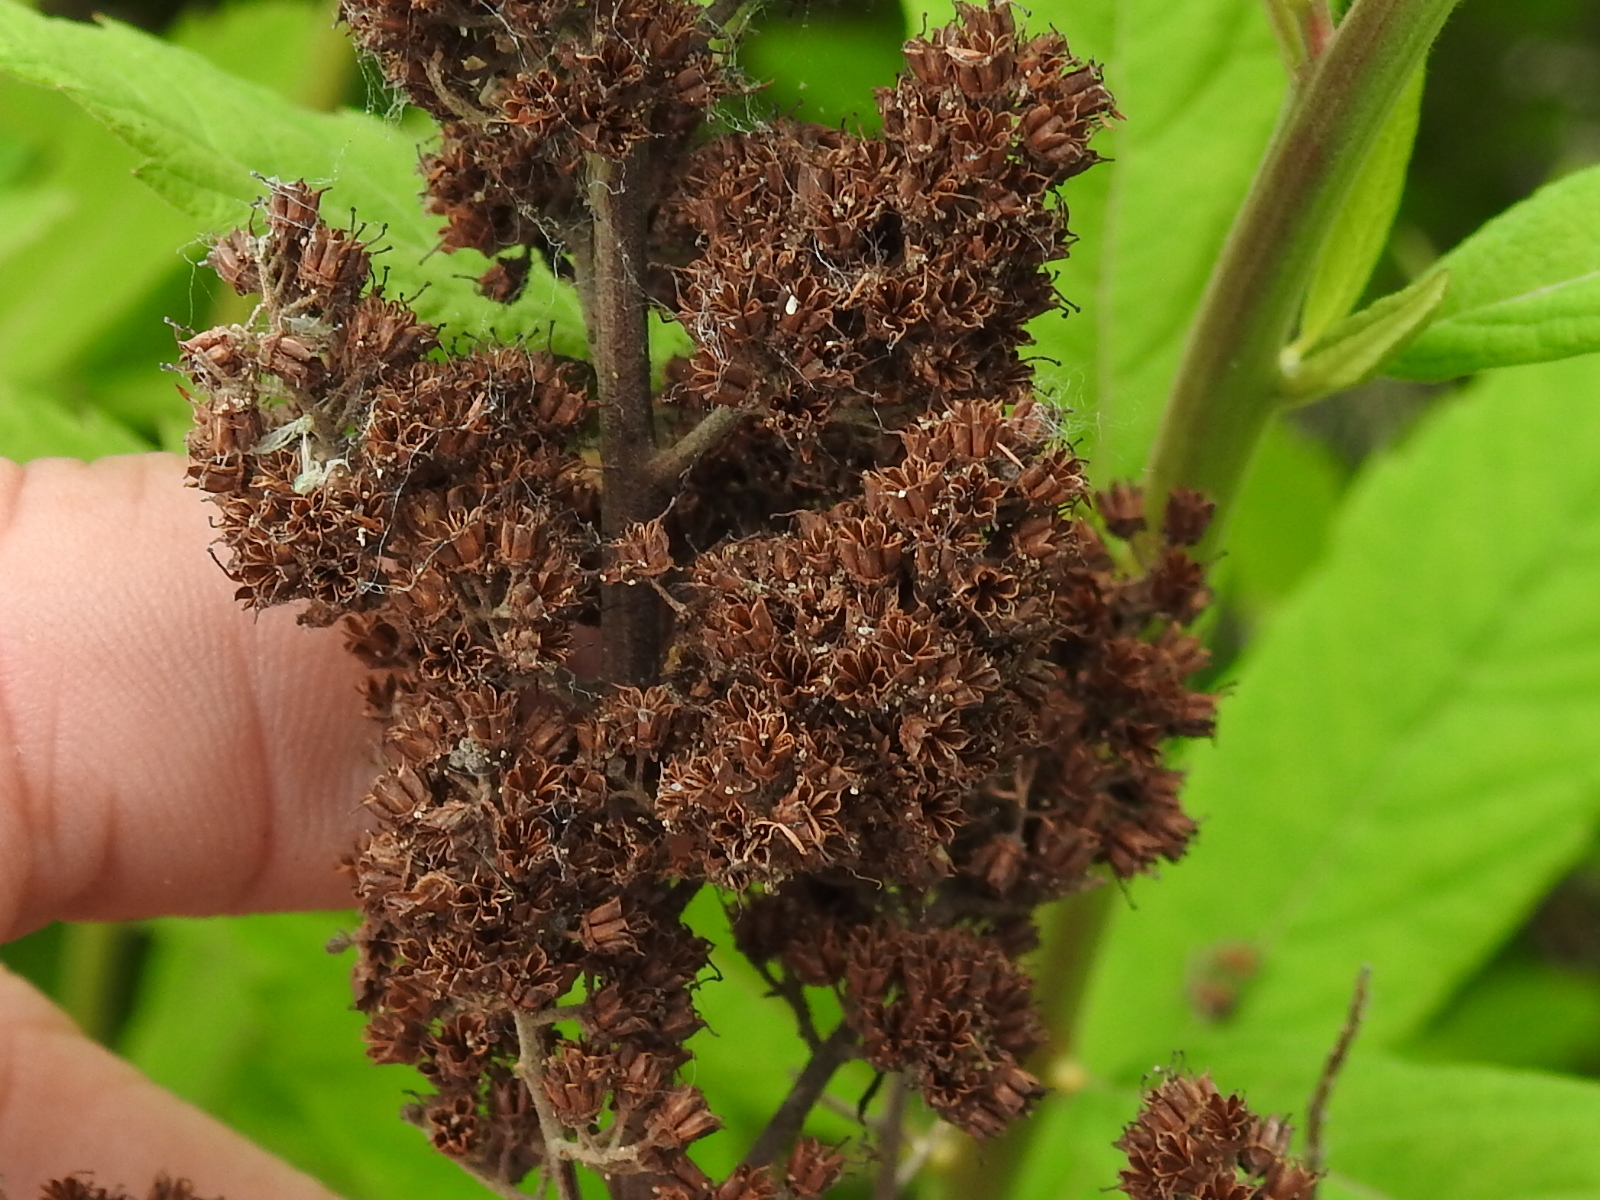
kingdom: Plantae
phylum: Tracheophyta
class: Magnoliopsida
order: Rosales
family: Rosaceae
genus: Spiraea
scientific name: Spiraea douglasii
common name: Steeplebush
